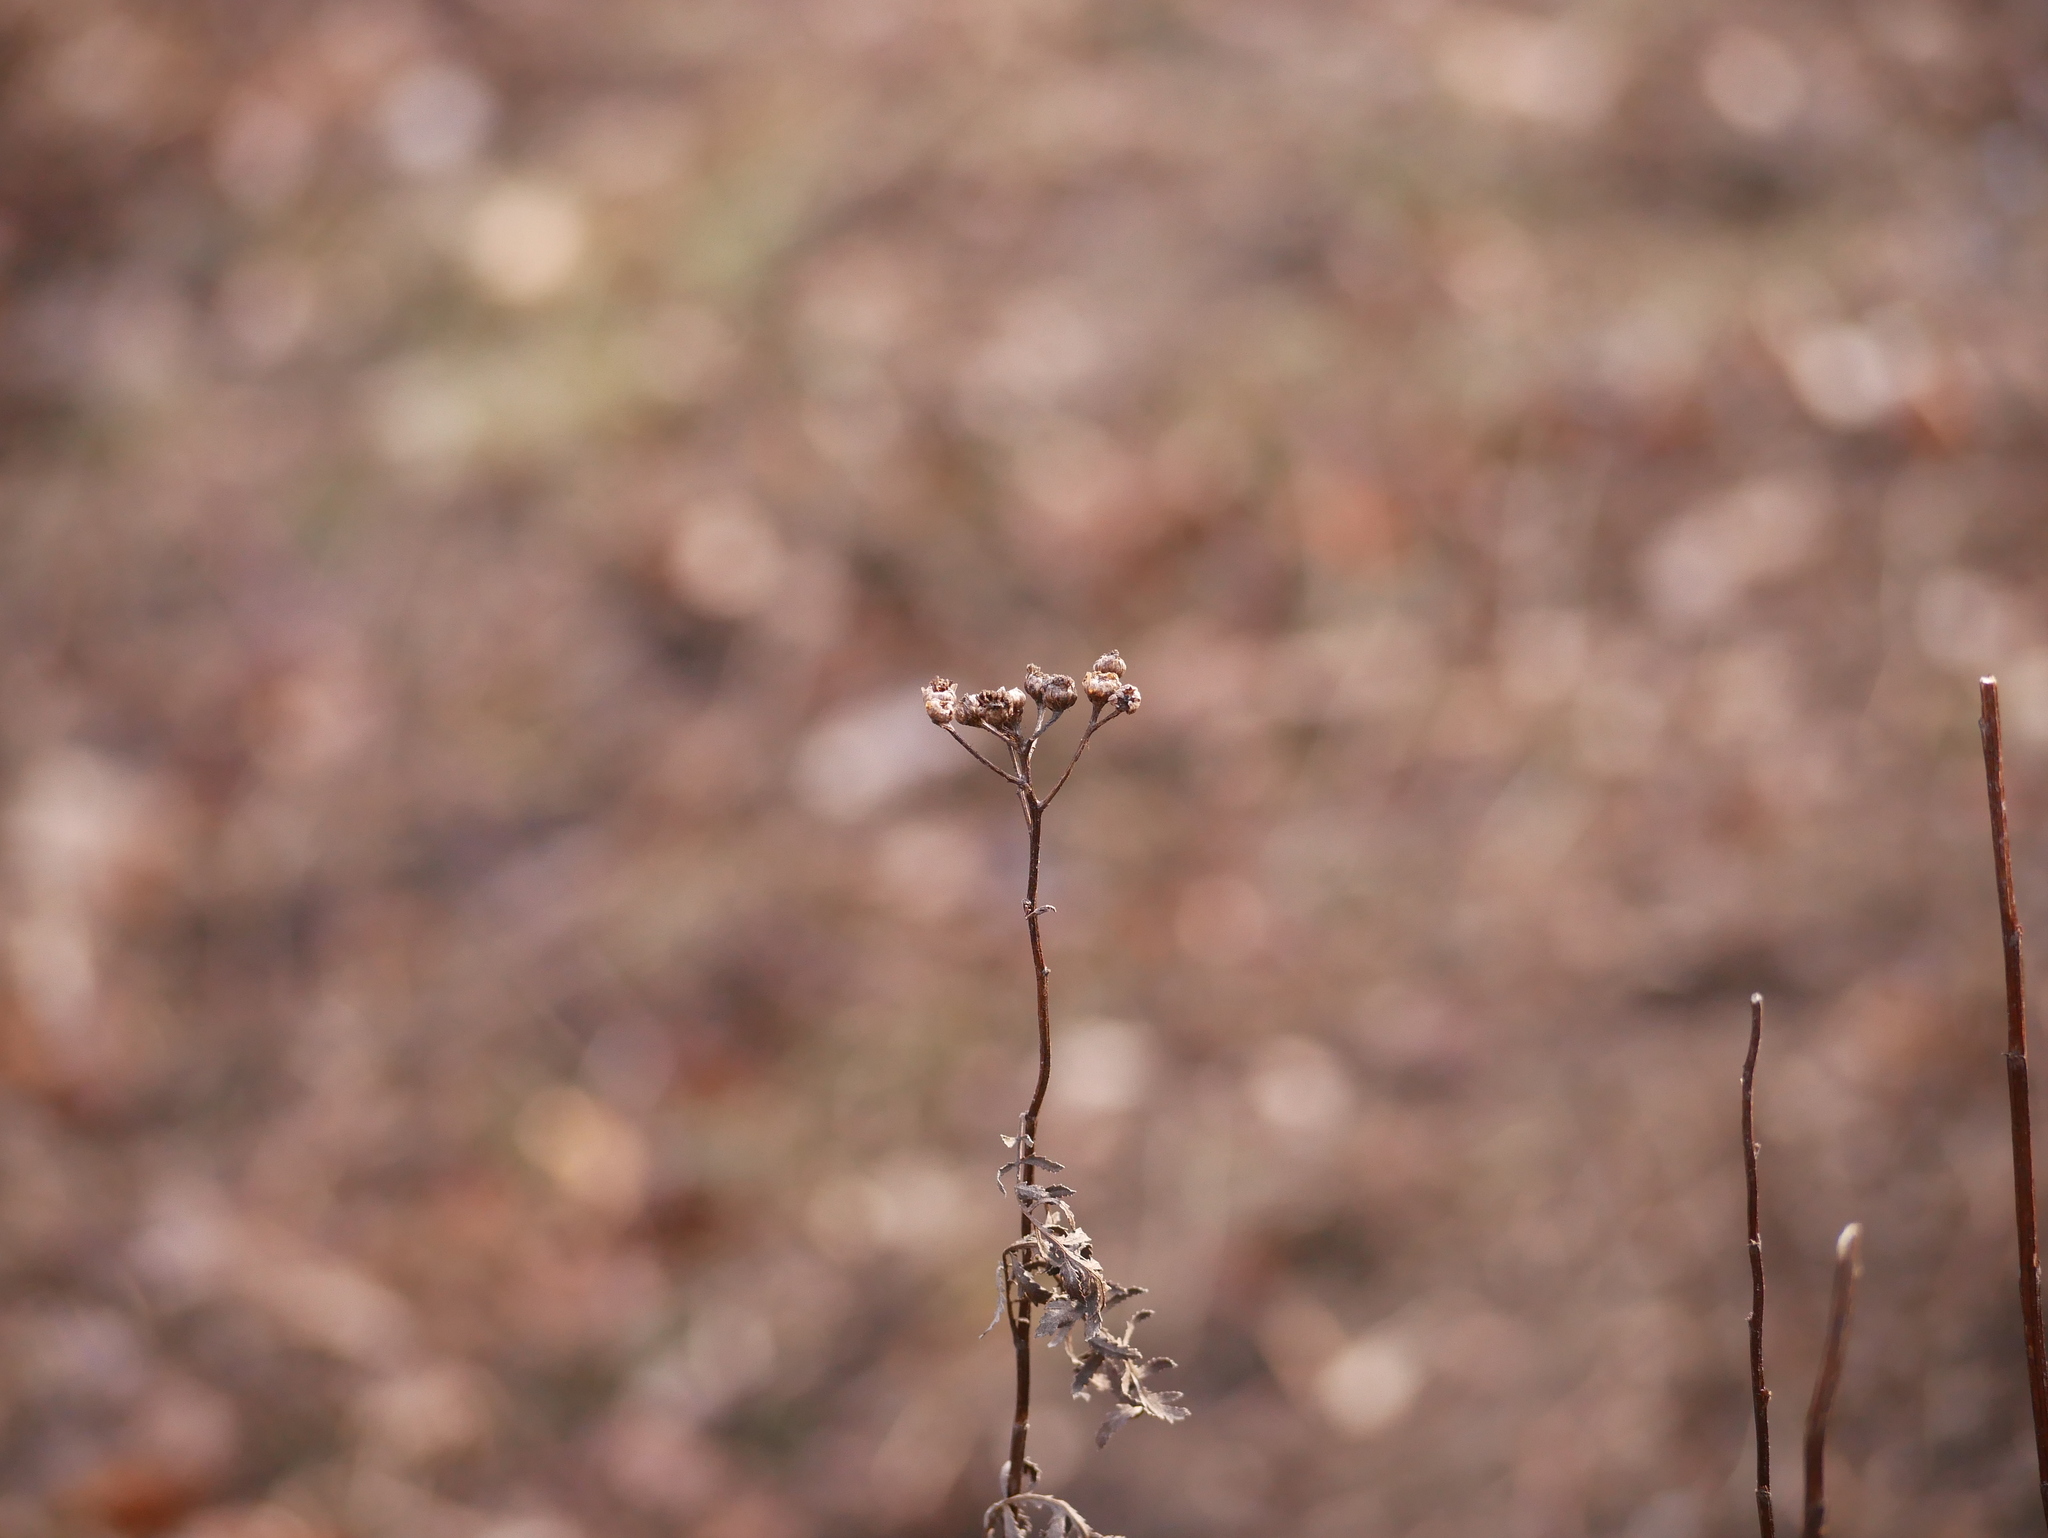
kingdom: Plantae
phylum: Tracheophyta
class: Magnoliopsida
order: Asterales
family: Asteraceae
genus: Tanacetum
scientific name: Tanacetum vulgare
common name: Common tansy
